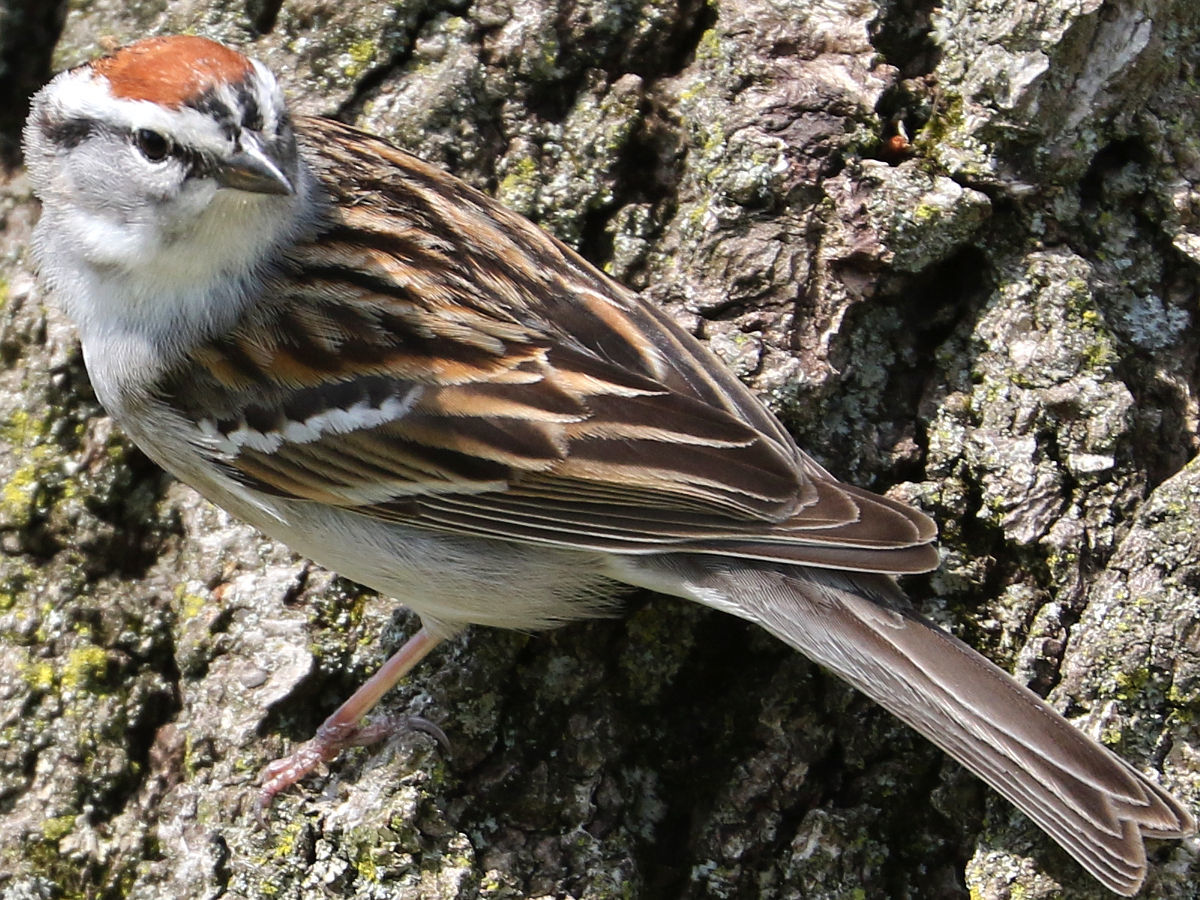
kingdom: Animalia
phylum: Chordata
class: Aves
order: Passeriformes
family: Passerellidae
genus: Spizella
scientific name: Spizella passerina
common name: Chipping sparrow
